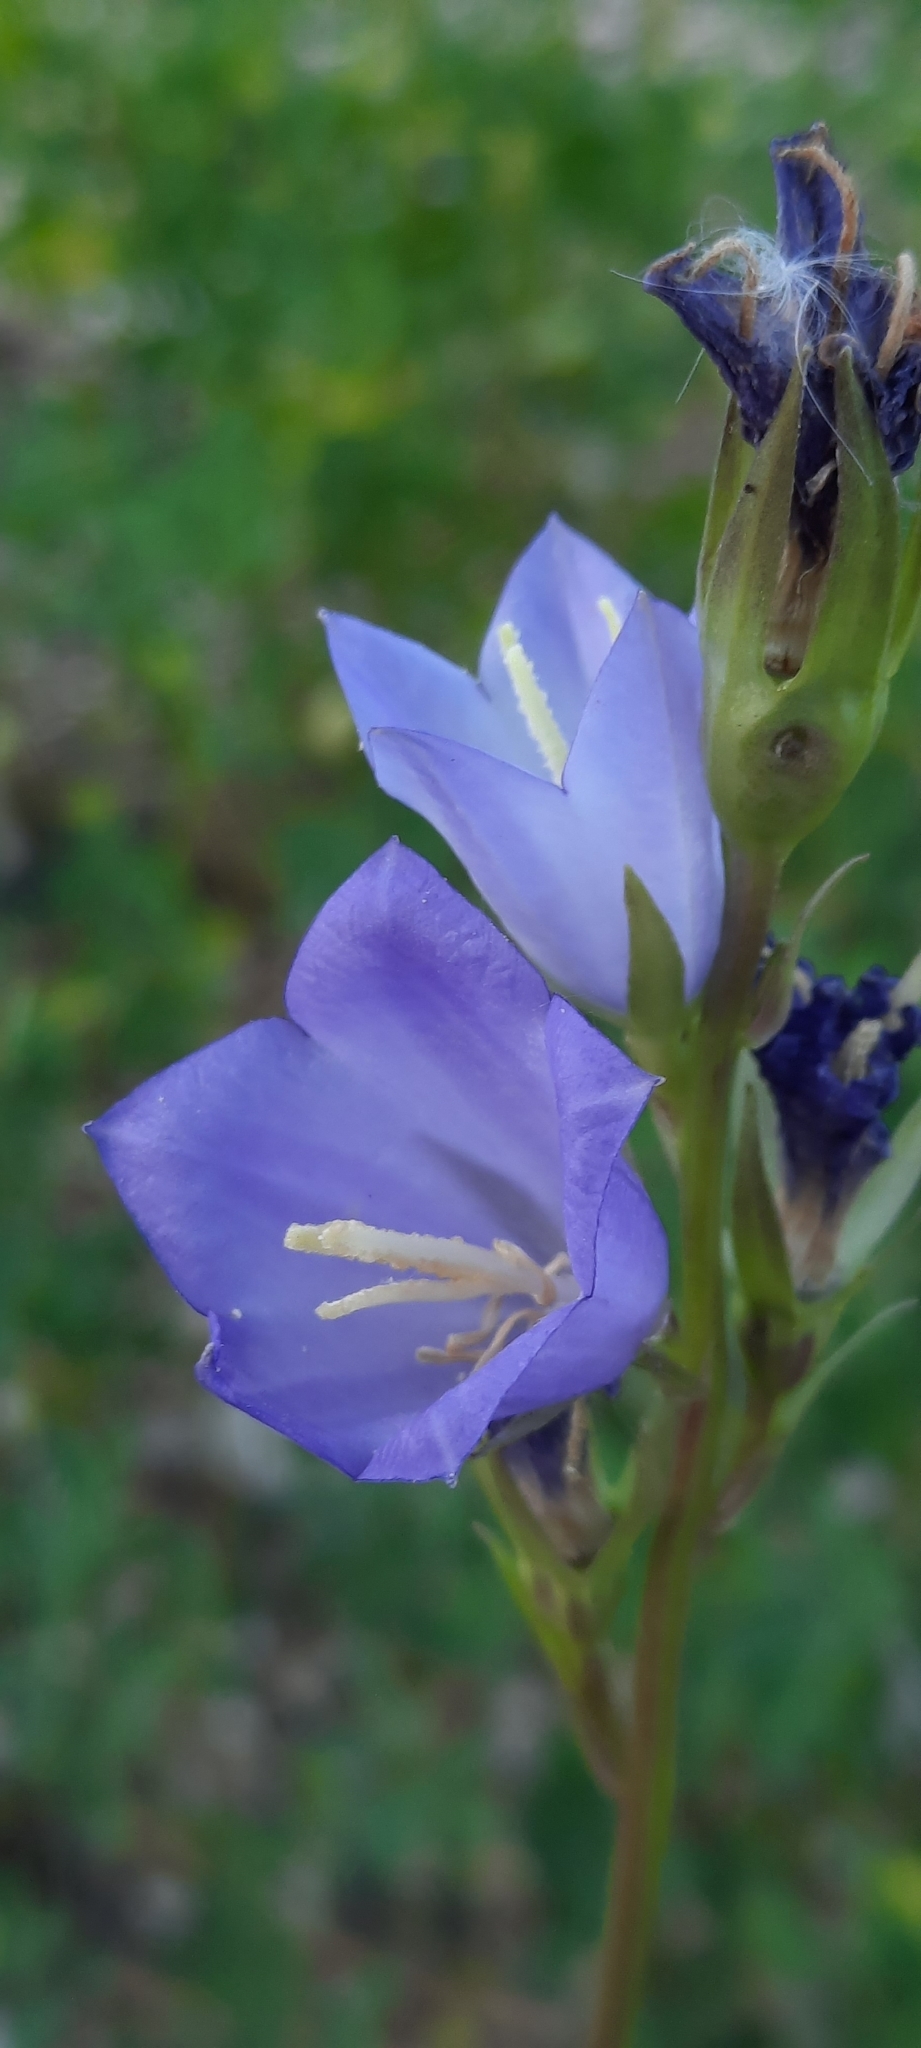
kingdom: Plantae
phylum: Tracheophyta
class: Magnoliopsida
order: Asterales
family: Campanulaceae
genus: Campanula
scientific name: Campanula persicifolia
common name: Peach-leaved bellflower
